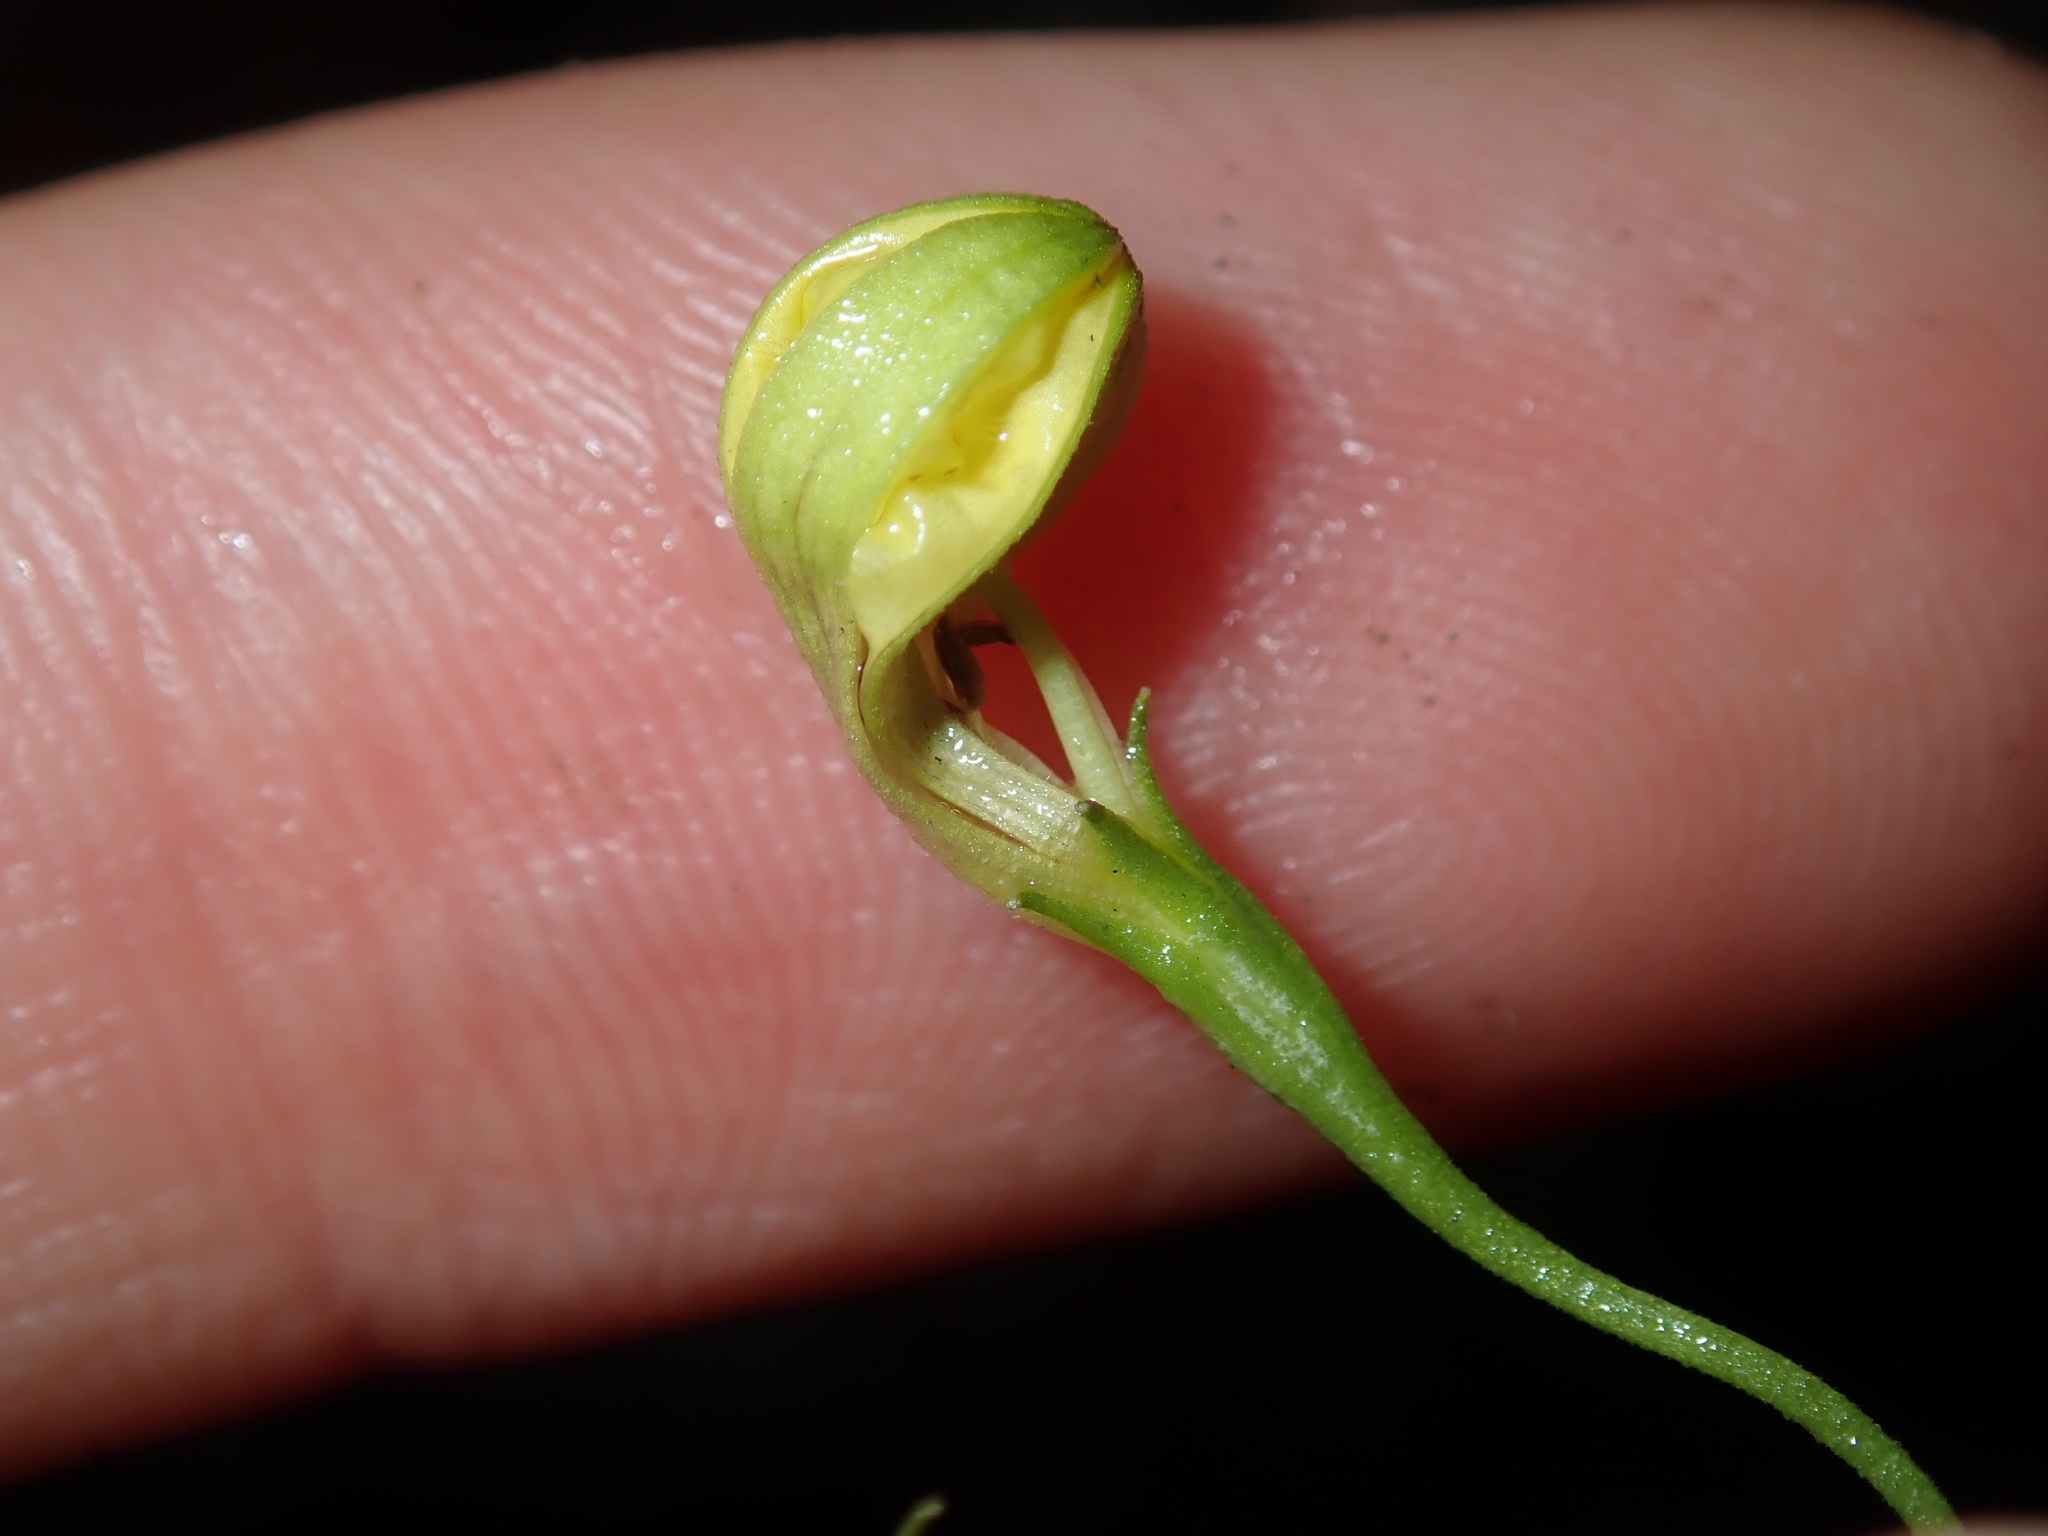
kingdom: Plantae
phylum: Tracheophyta
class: Magnoliopsida
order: Asterales
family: Goodeniaceae
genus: Goodenia
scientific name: Goodenia hederacea
